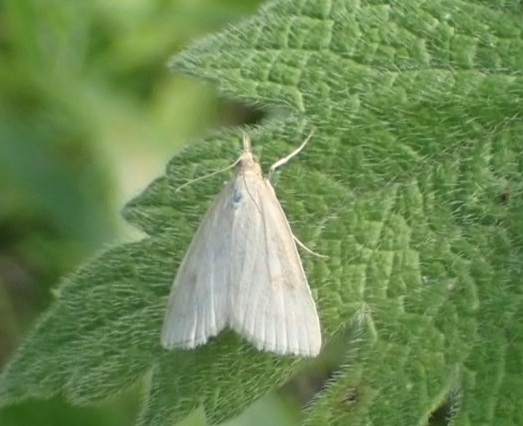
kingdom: Animalia
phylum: Arthropoda
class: Insecta
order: Lepidoptera
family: Crambidae
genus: Udea
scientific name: Udea lutealis
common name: Pale straw pearl
